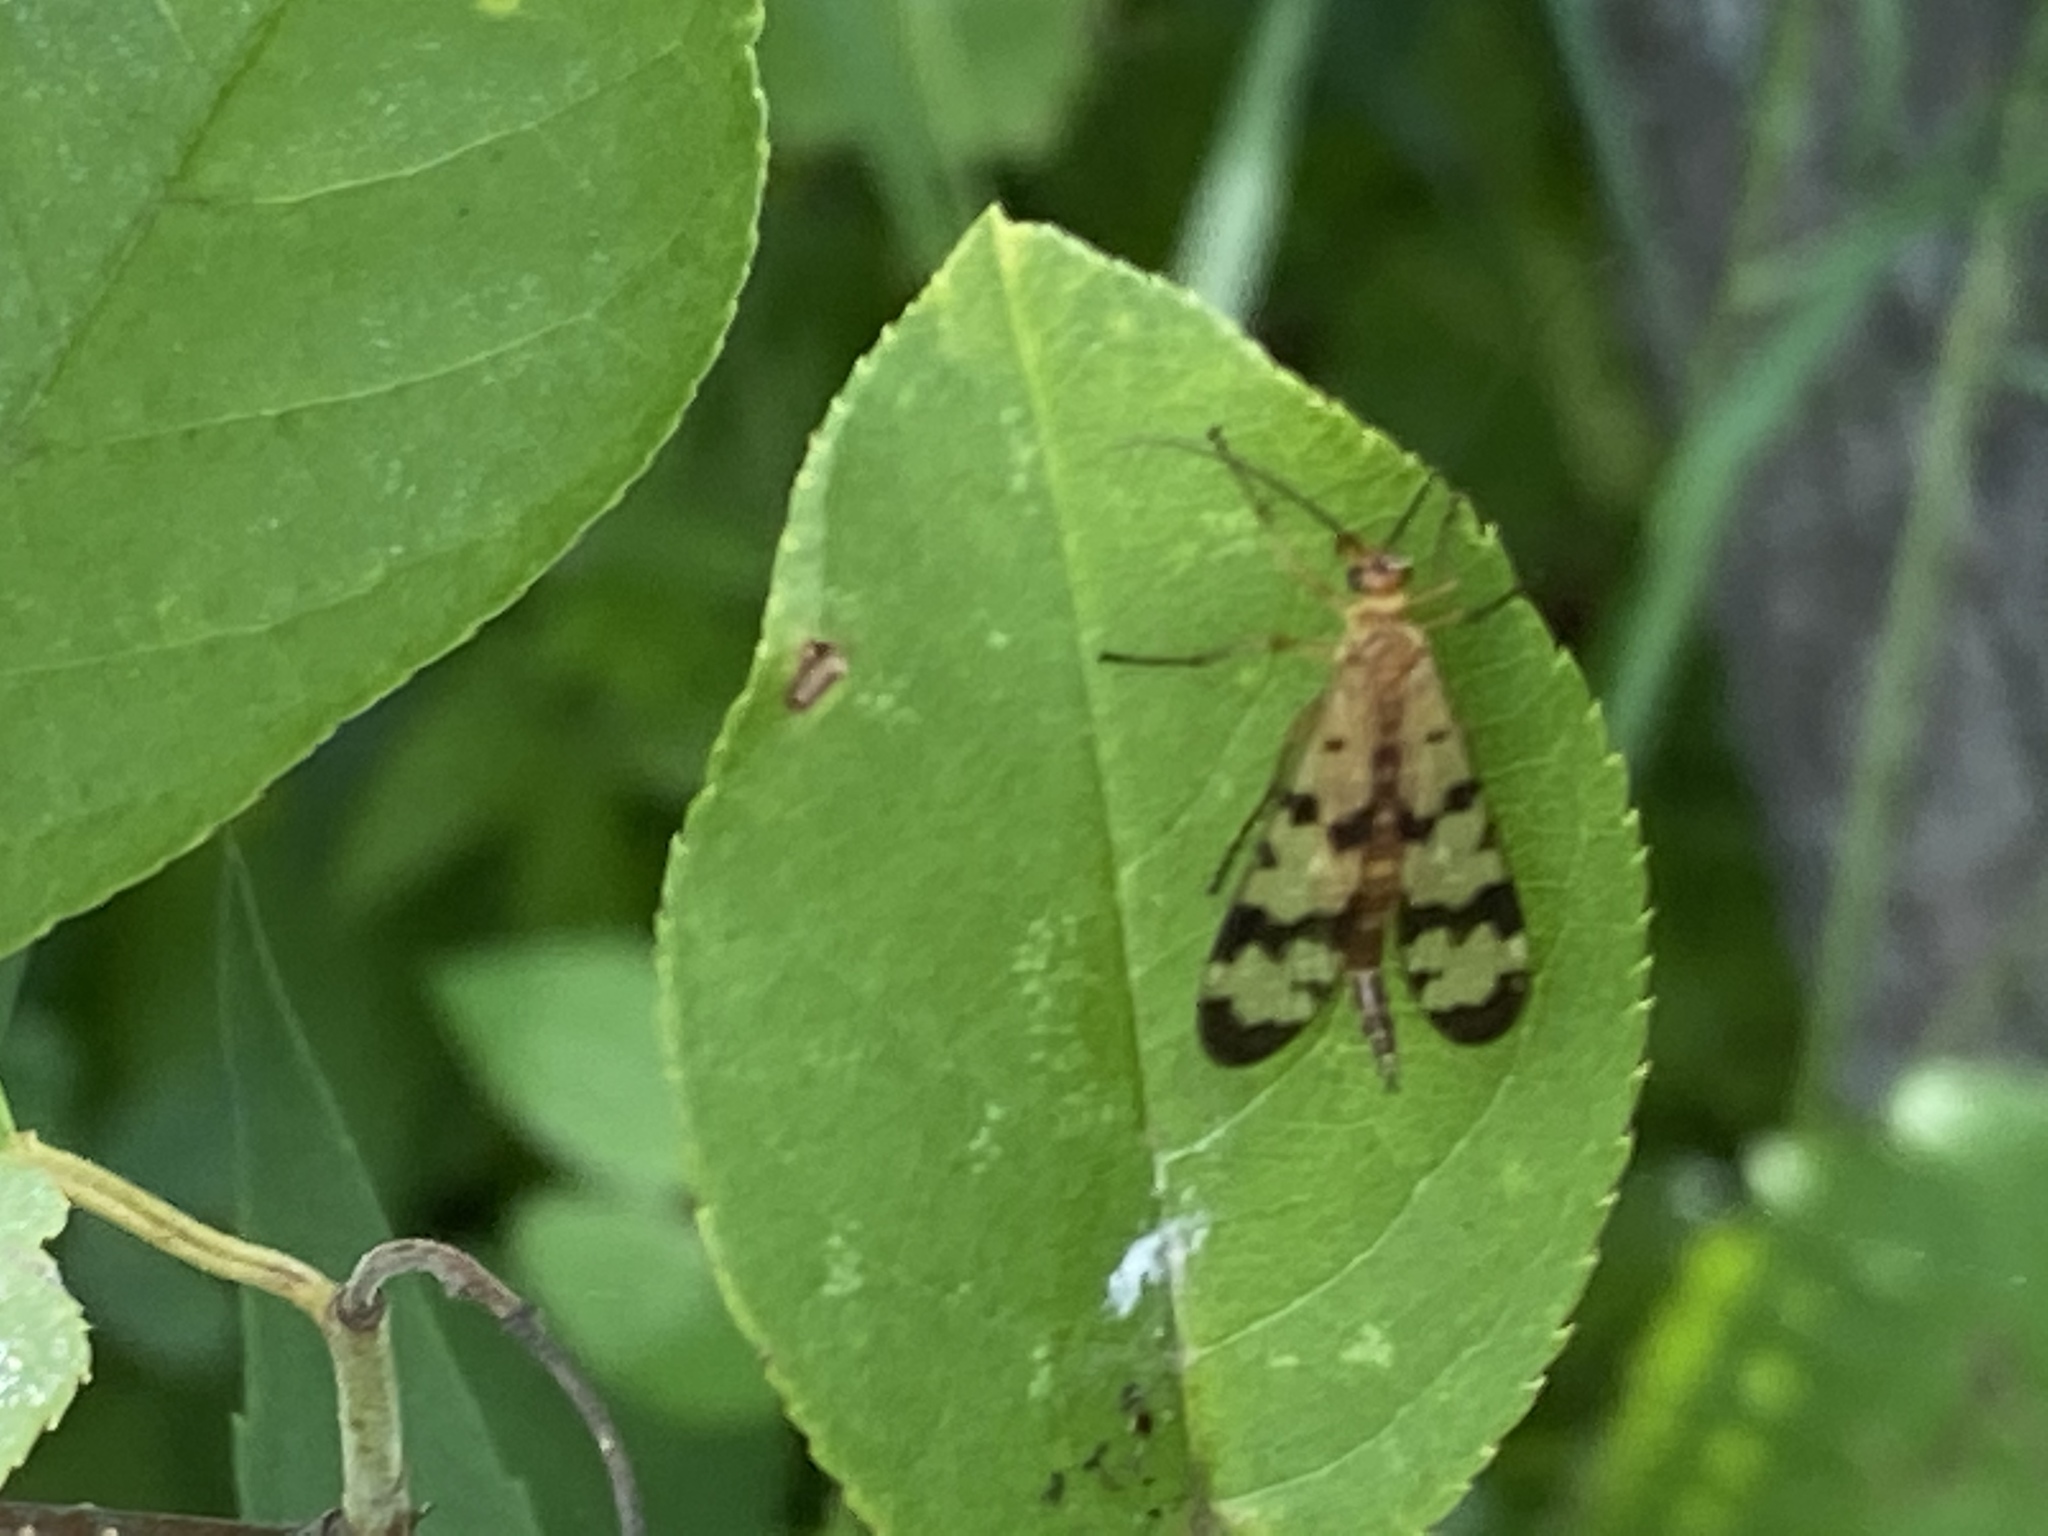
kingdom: Animalia
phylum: Arthropoda
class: Insecta
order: Mecoptera
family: Panorpidae
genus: Panorpa
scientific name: Panorpa helena
